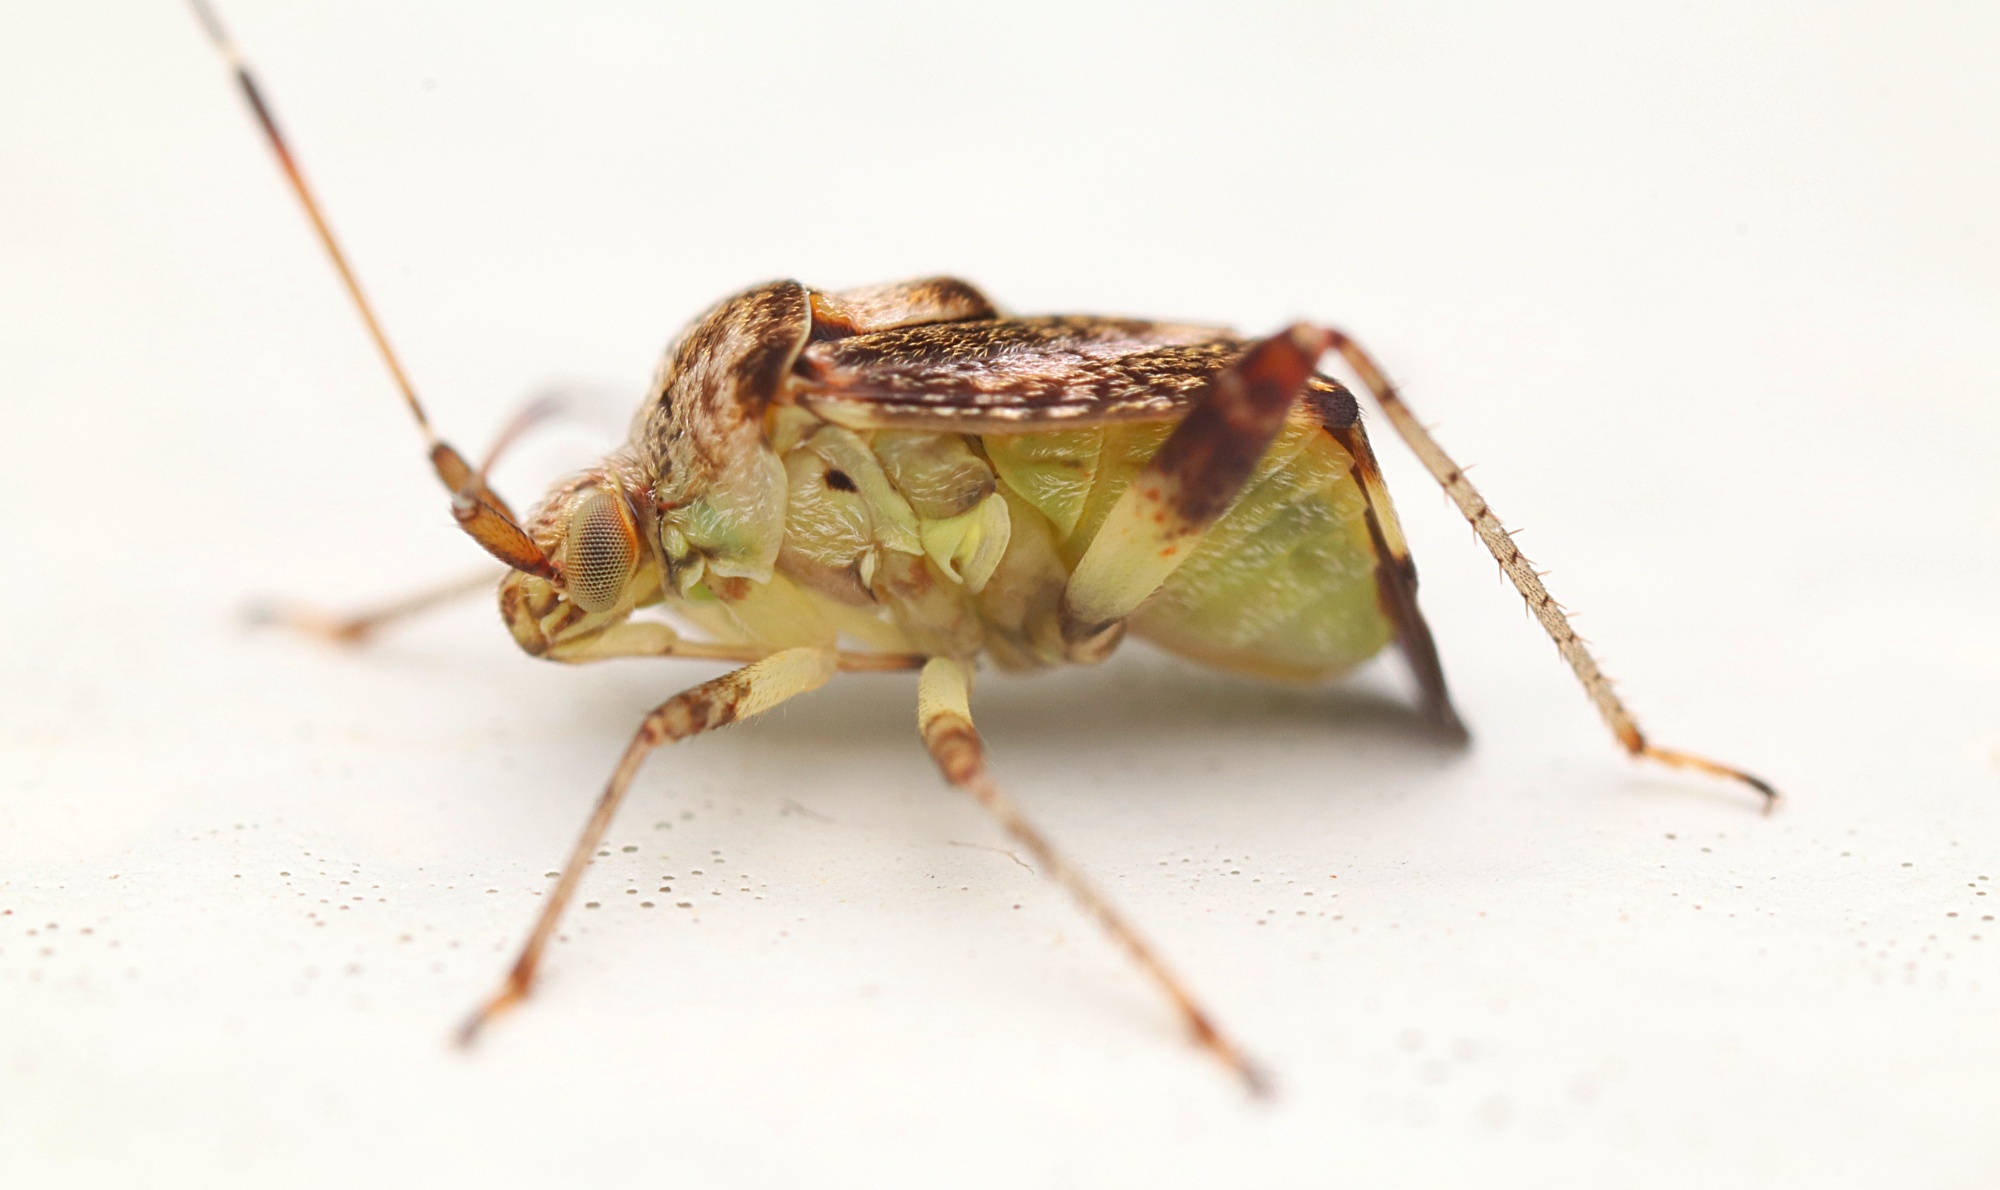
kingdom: Animalia
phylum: Arthropoda
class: Insecta
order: Hemiptera
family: Miridae
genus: Sidnia
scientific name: Sidnia kinbergi
